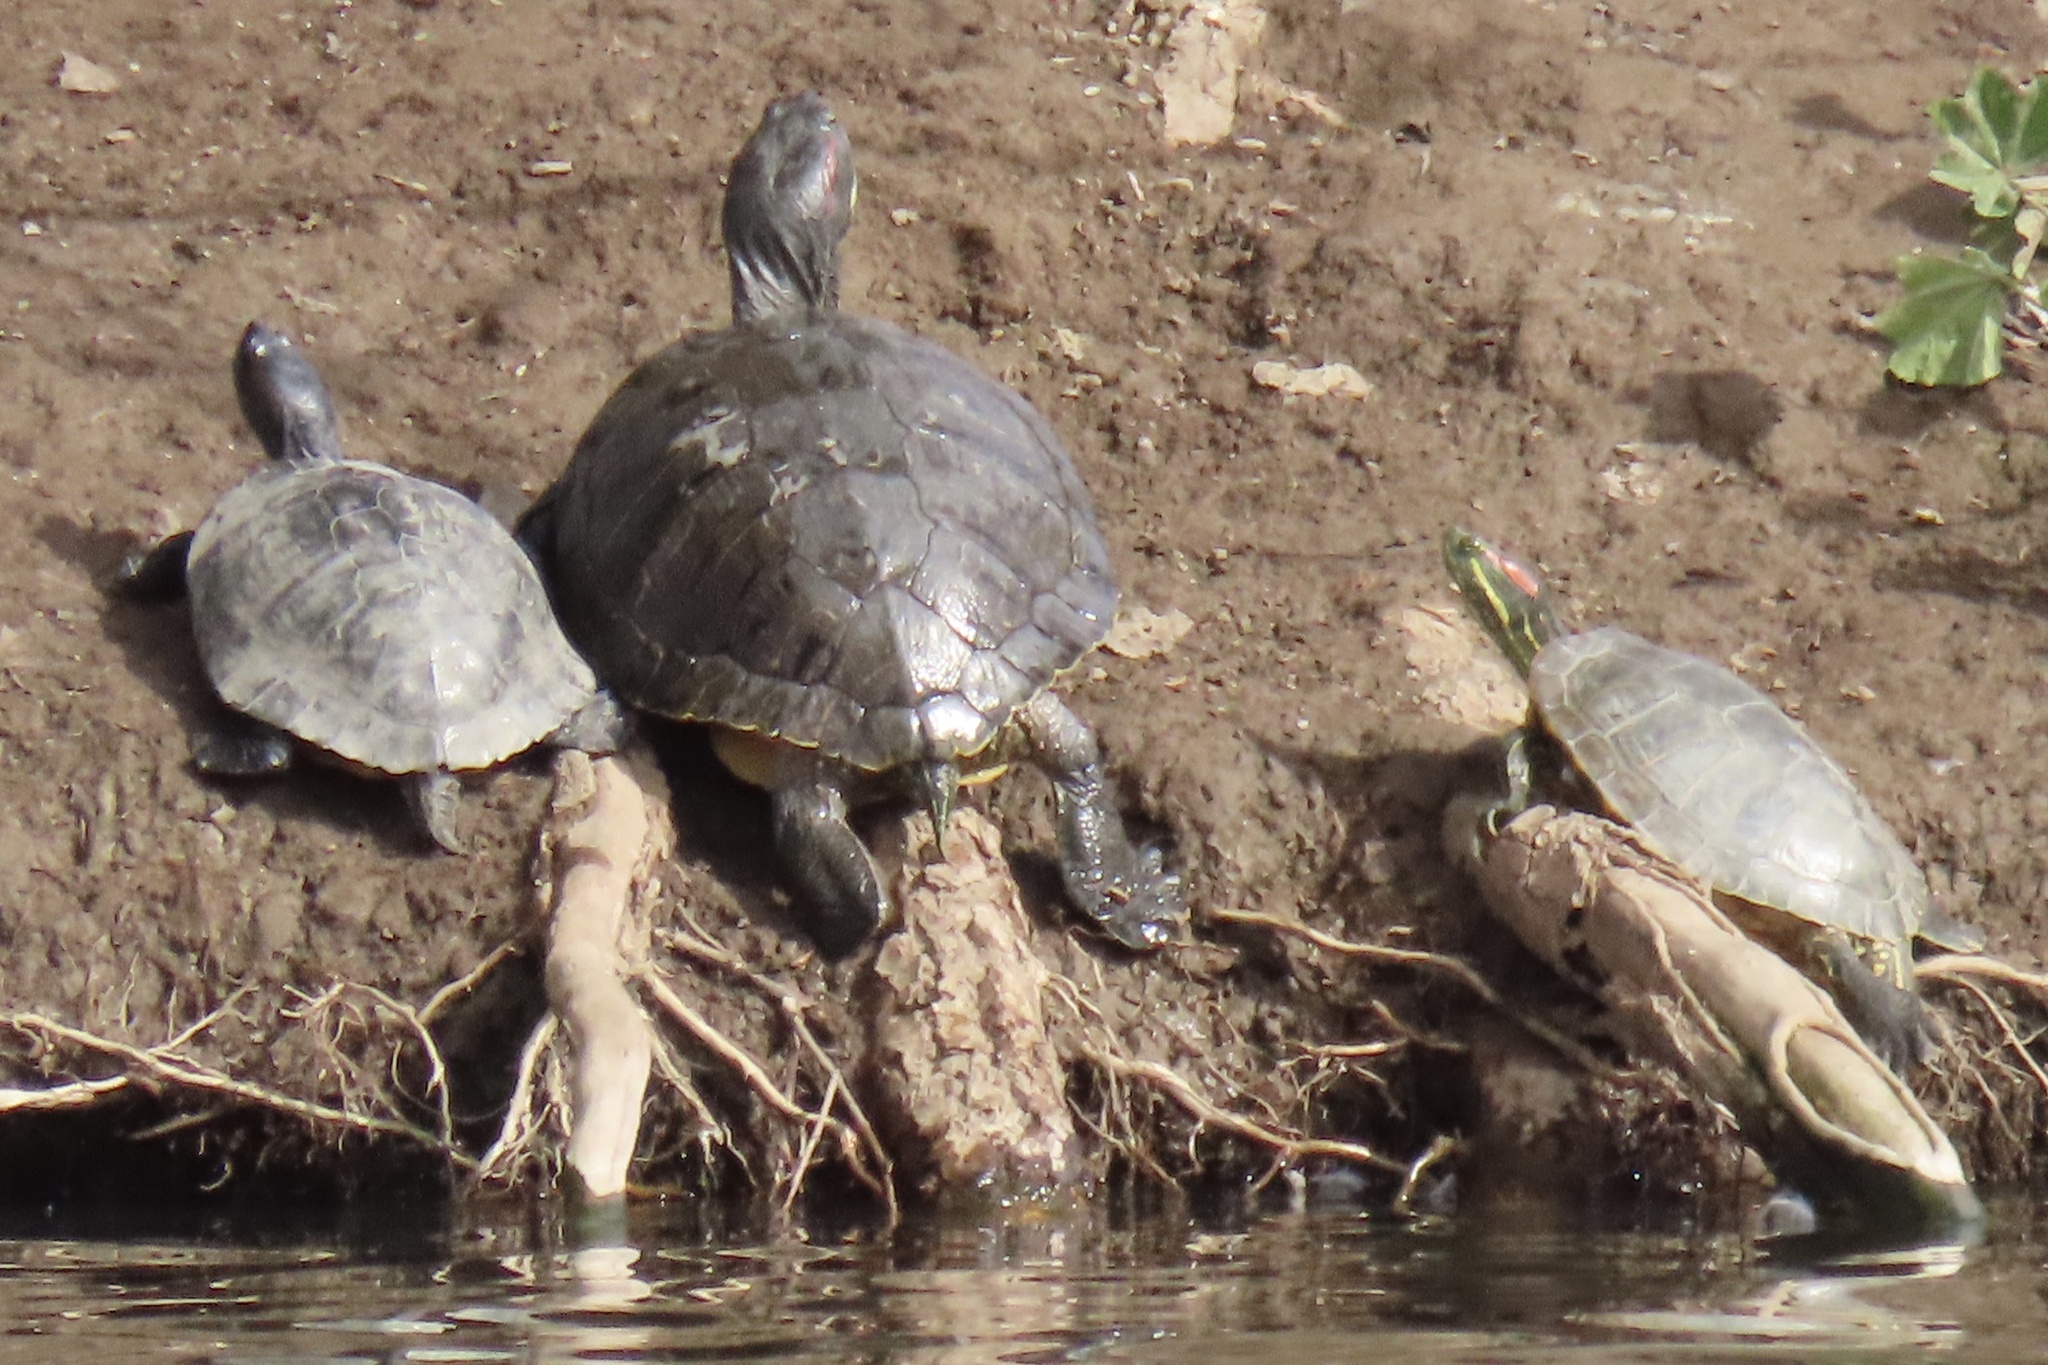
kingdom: Animalia
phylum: Chordata
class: Testudines
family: Emydidae
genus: Trachemys
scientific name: Trachemys scripta
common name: Slider
